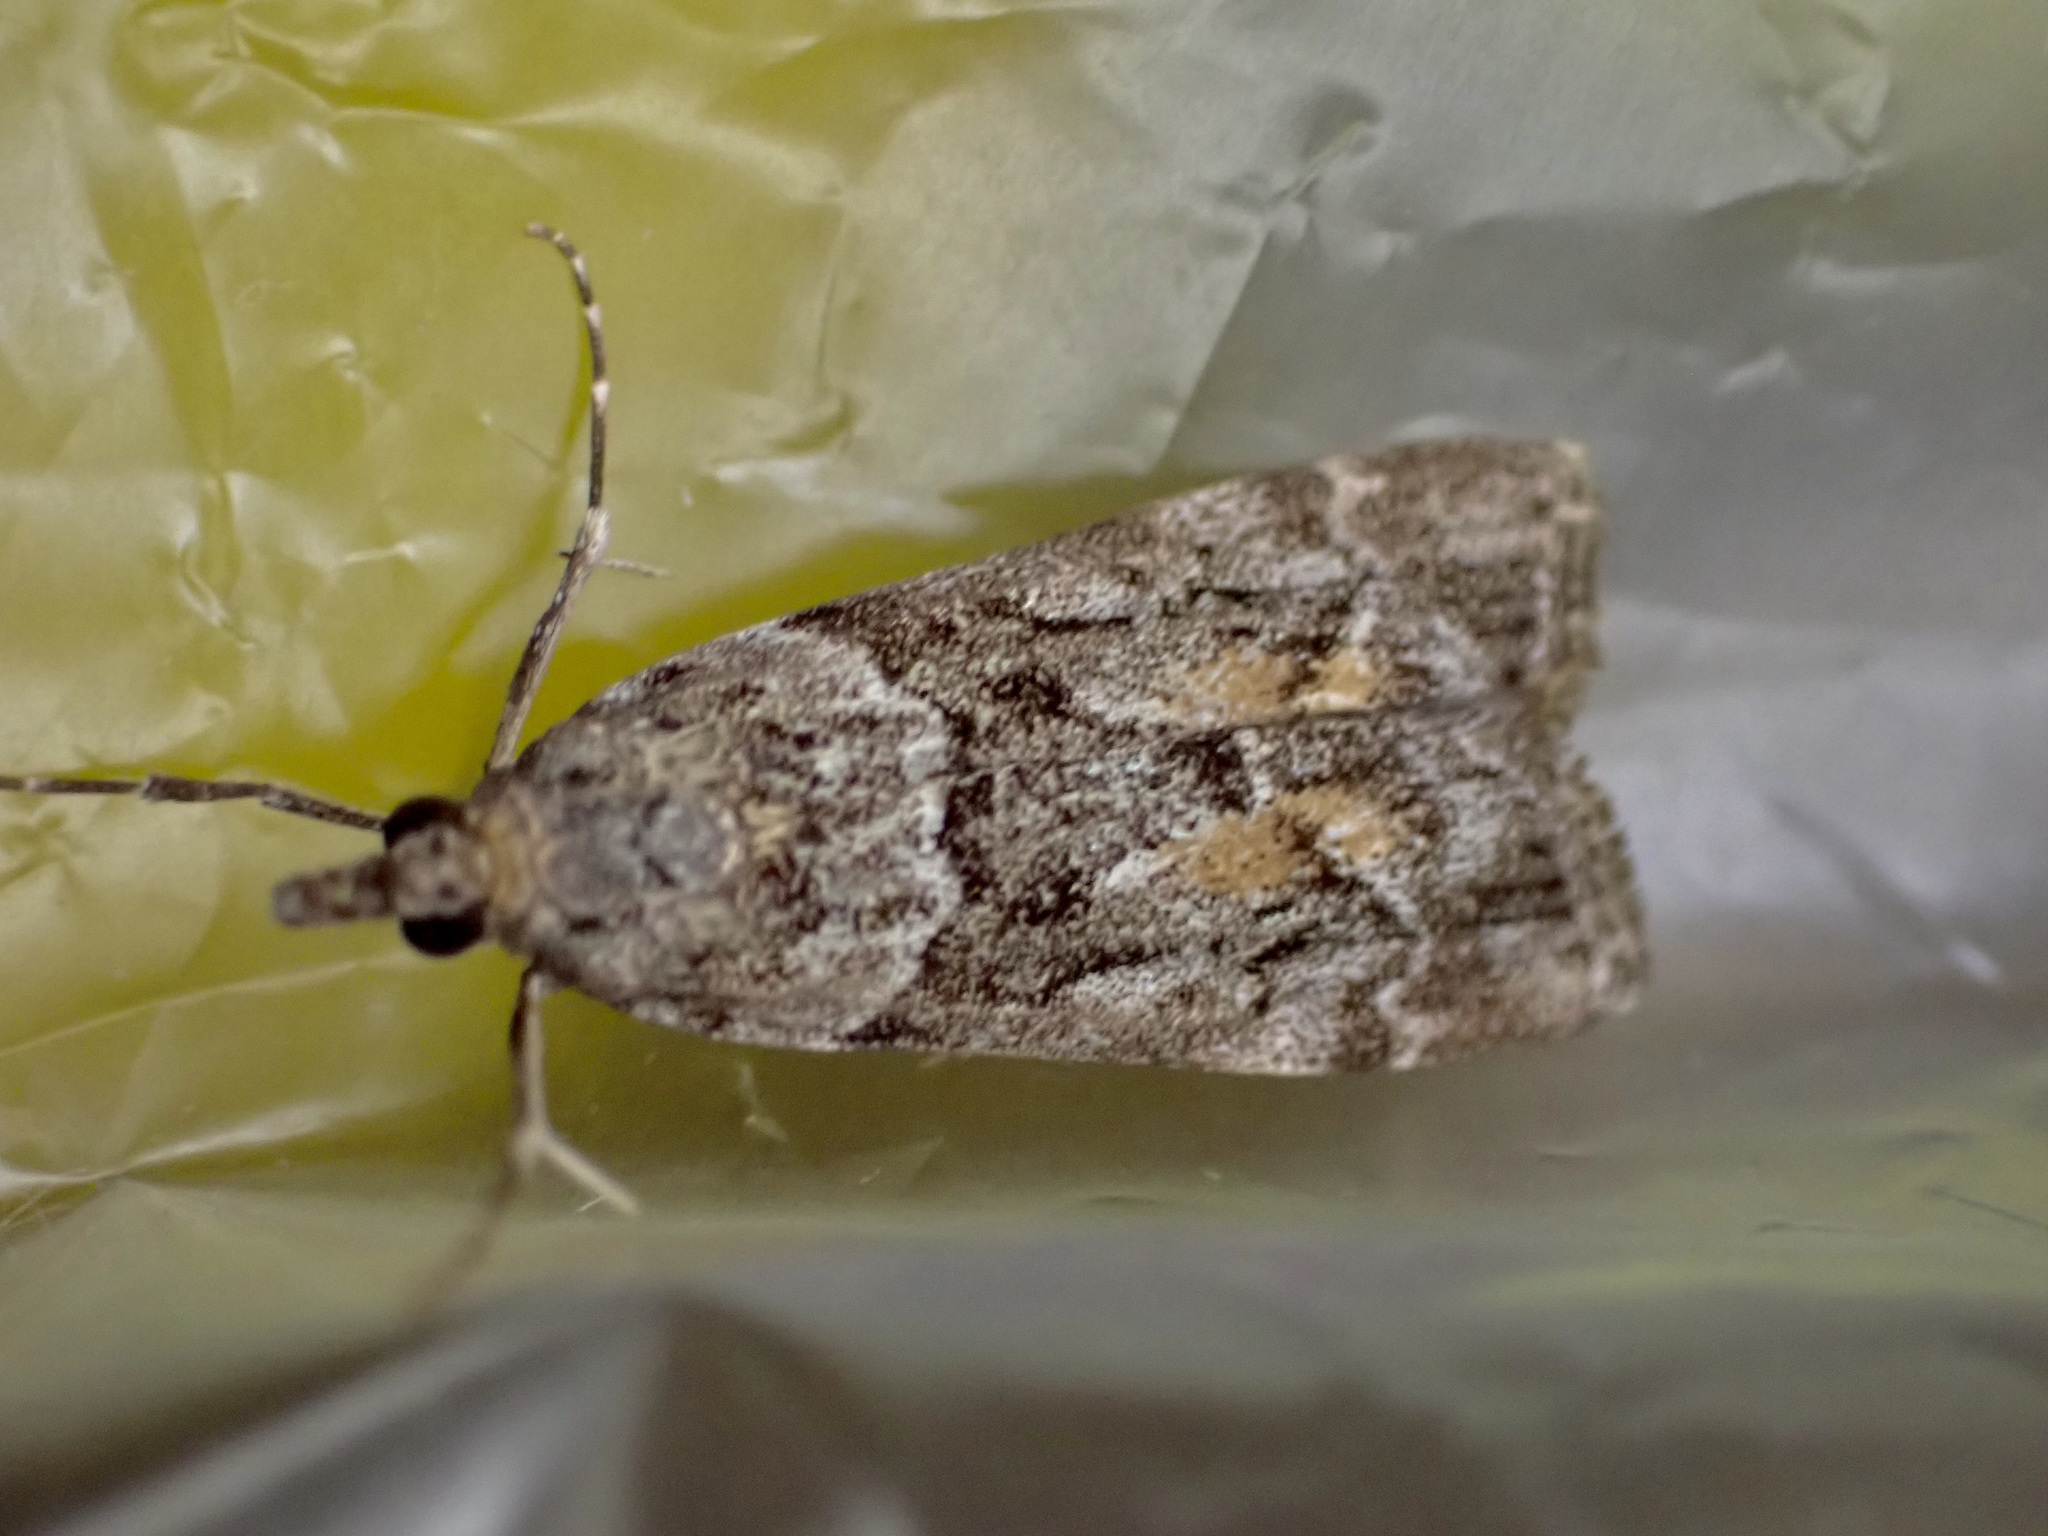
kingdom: Animalia
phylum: Arthropoda
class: Insecta
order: Lepidoptera
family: Crambidae
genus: Eudonia
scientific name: Eudonia submarginalis
